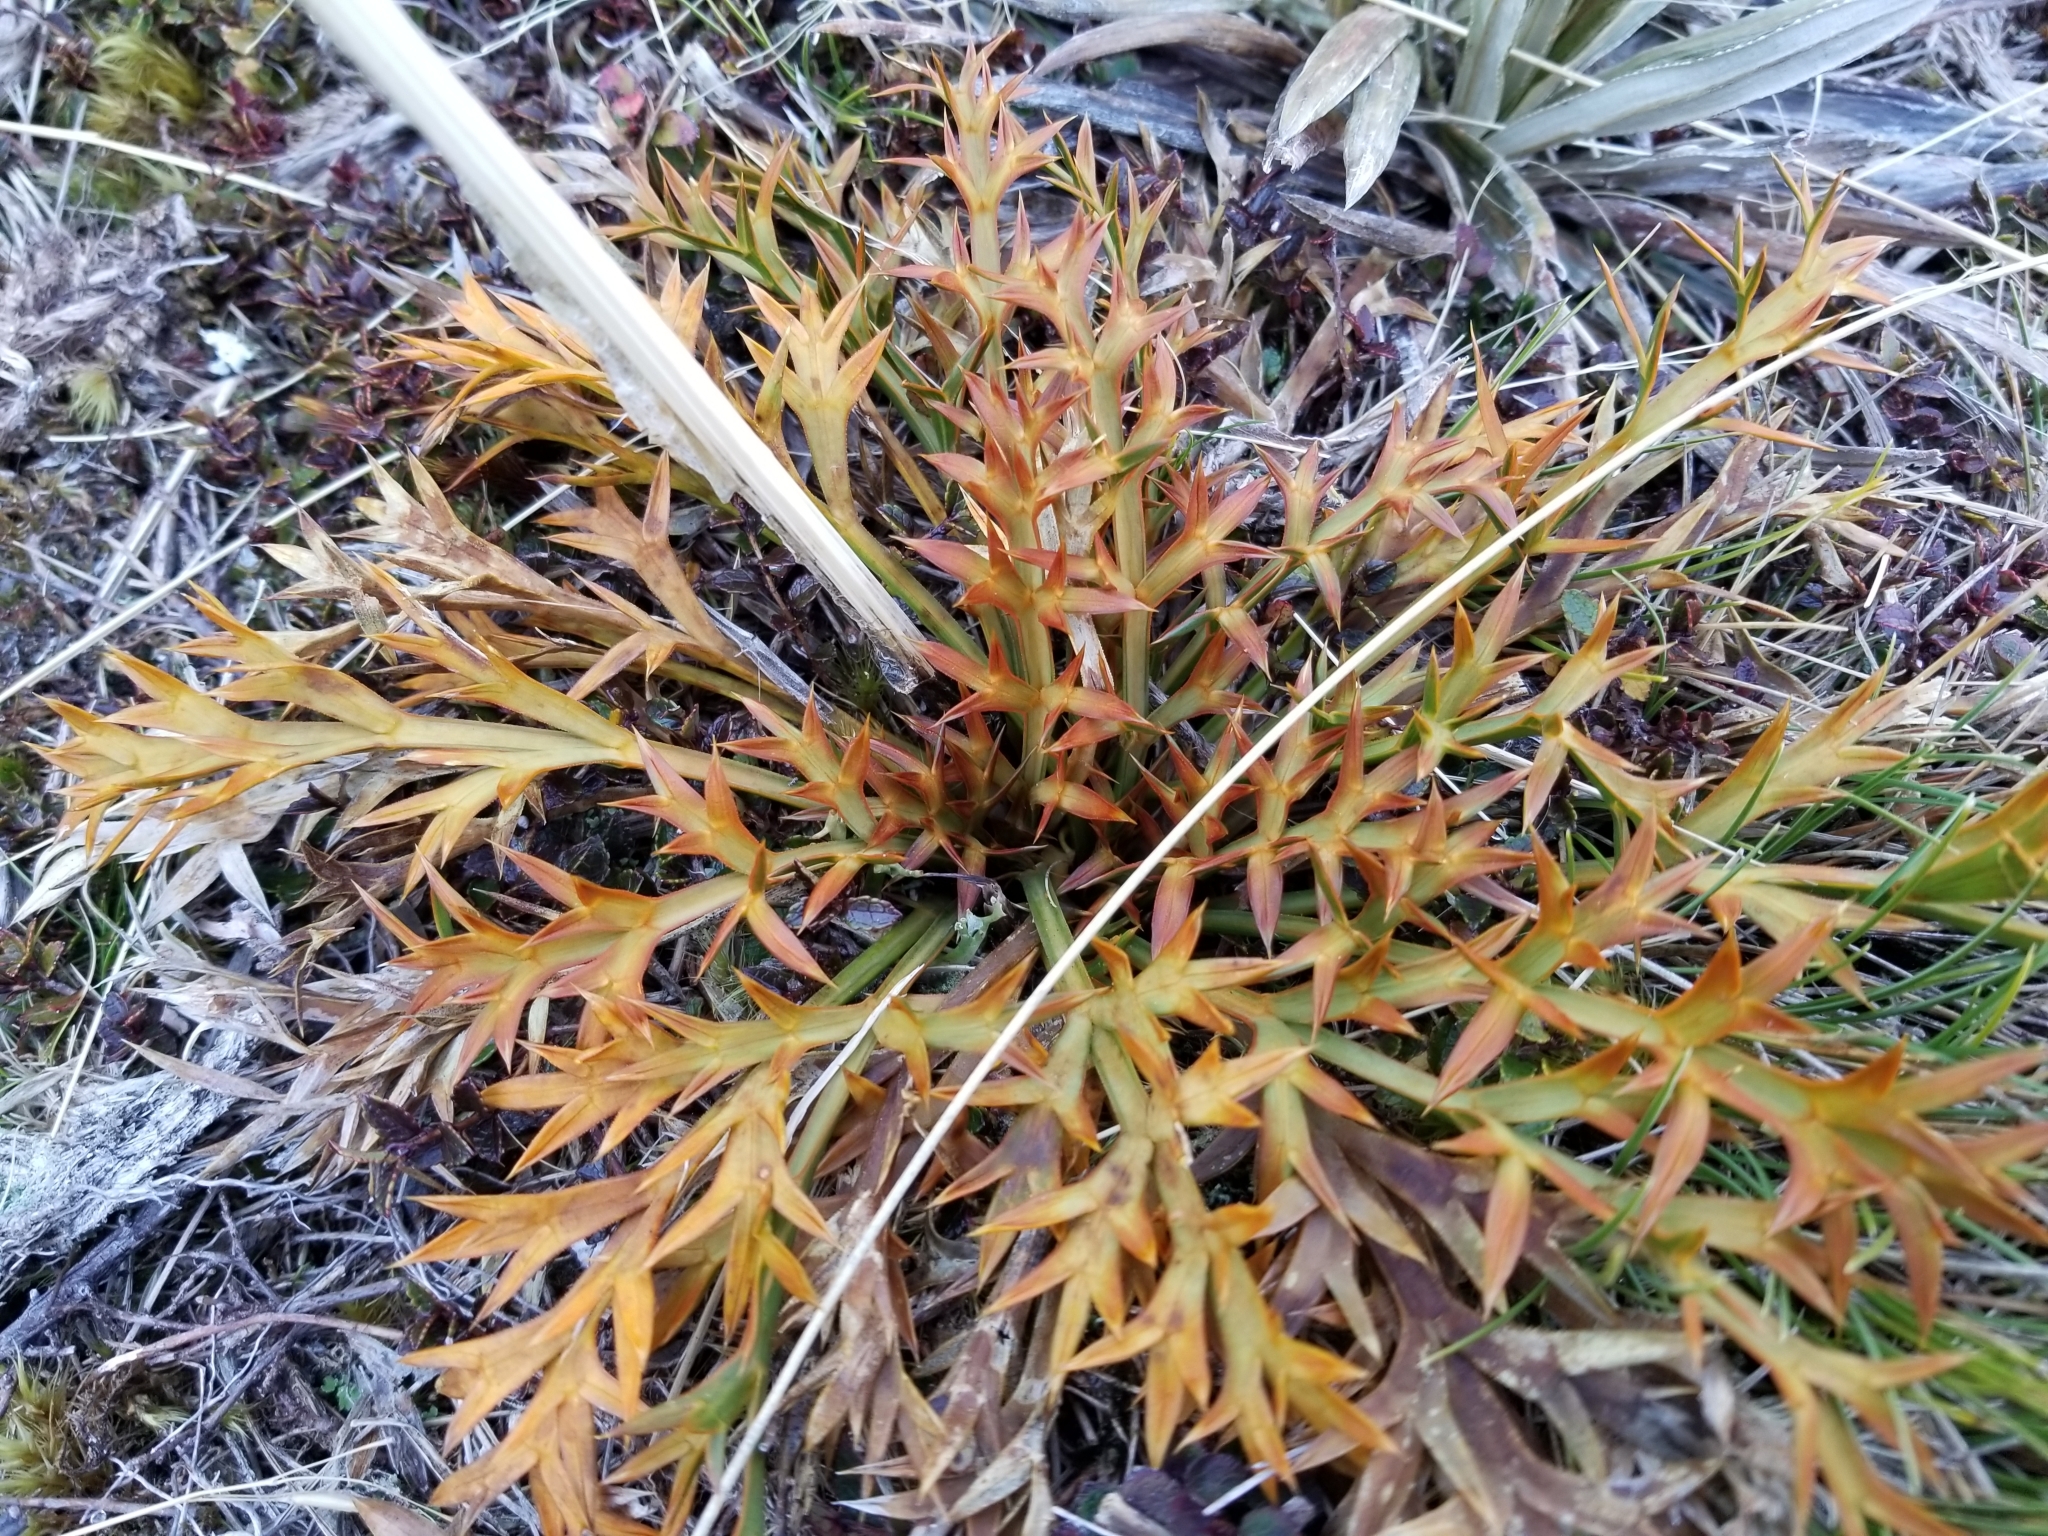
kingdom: Plantae
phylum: Tracheophyta
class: Magnoliopsida
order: Apiales
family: Apiaceae
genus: Aciphylla
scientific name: Aciphylla hookeri
